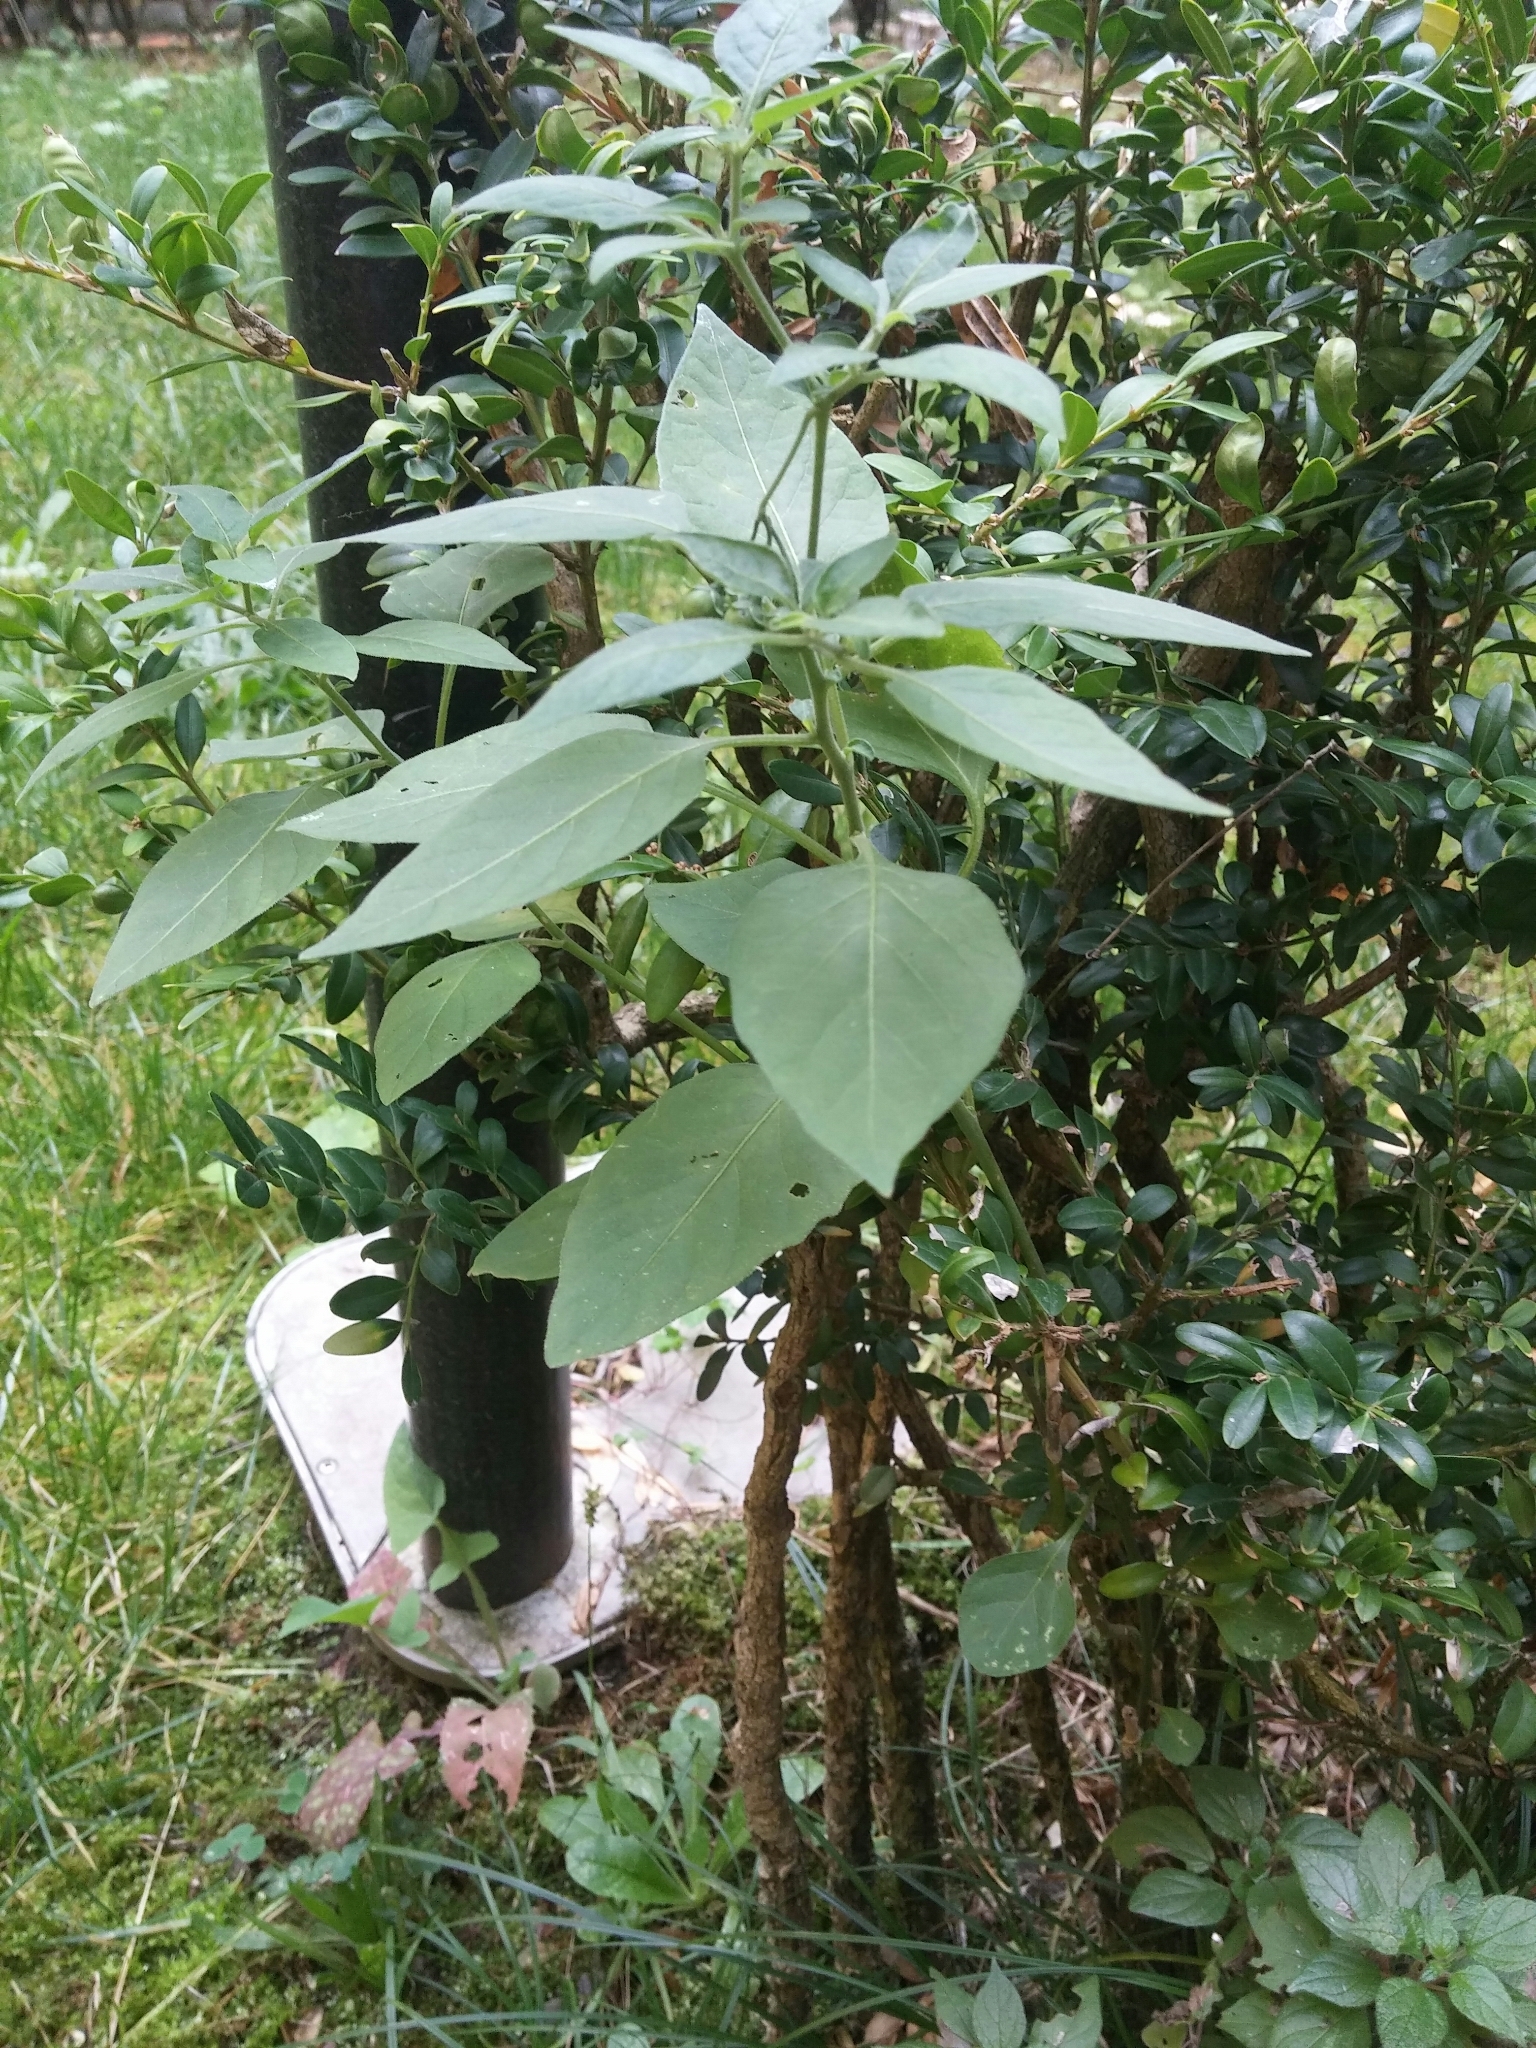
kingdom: Plantae
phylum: Tracheophyta
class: Magnoliopsida
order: Solanales
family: Solanaceae
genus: Solanum
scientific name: Solanum chenopodioides
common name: Tall nightshade
